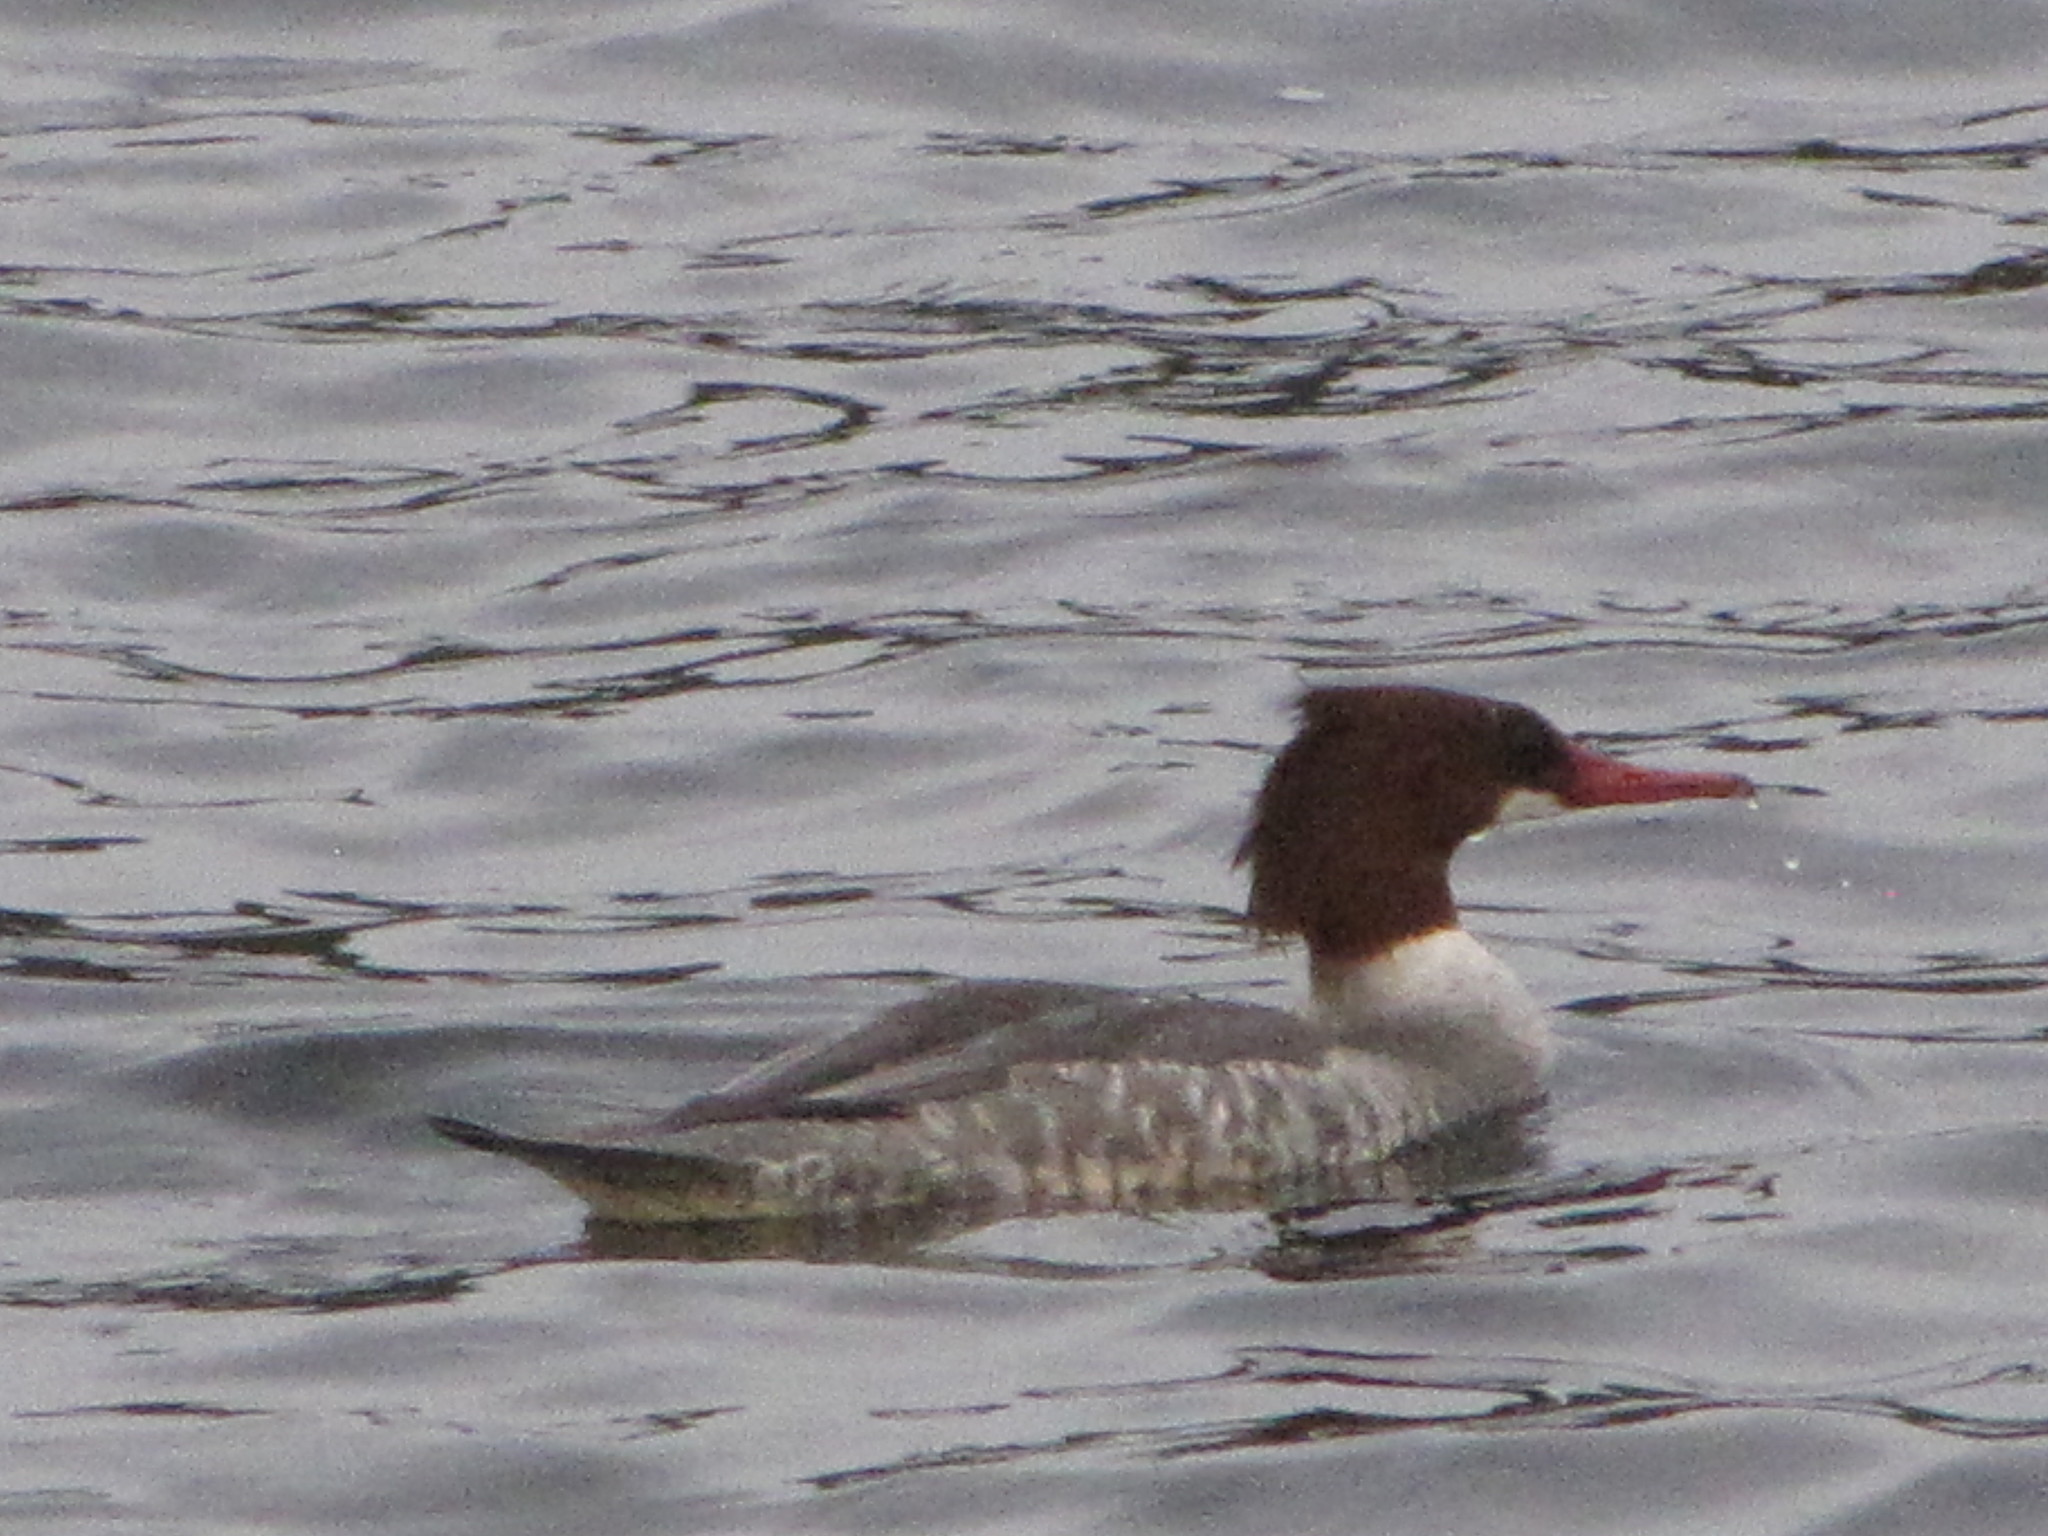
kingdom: Animalia
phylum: Chordata
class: Aves
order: Anseriformes
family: Anatidae
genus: Mergus
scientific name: Mergus merganser
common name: Common merganser
